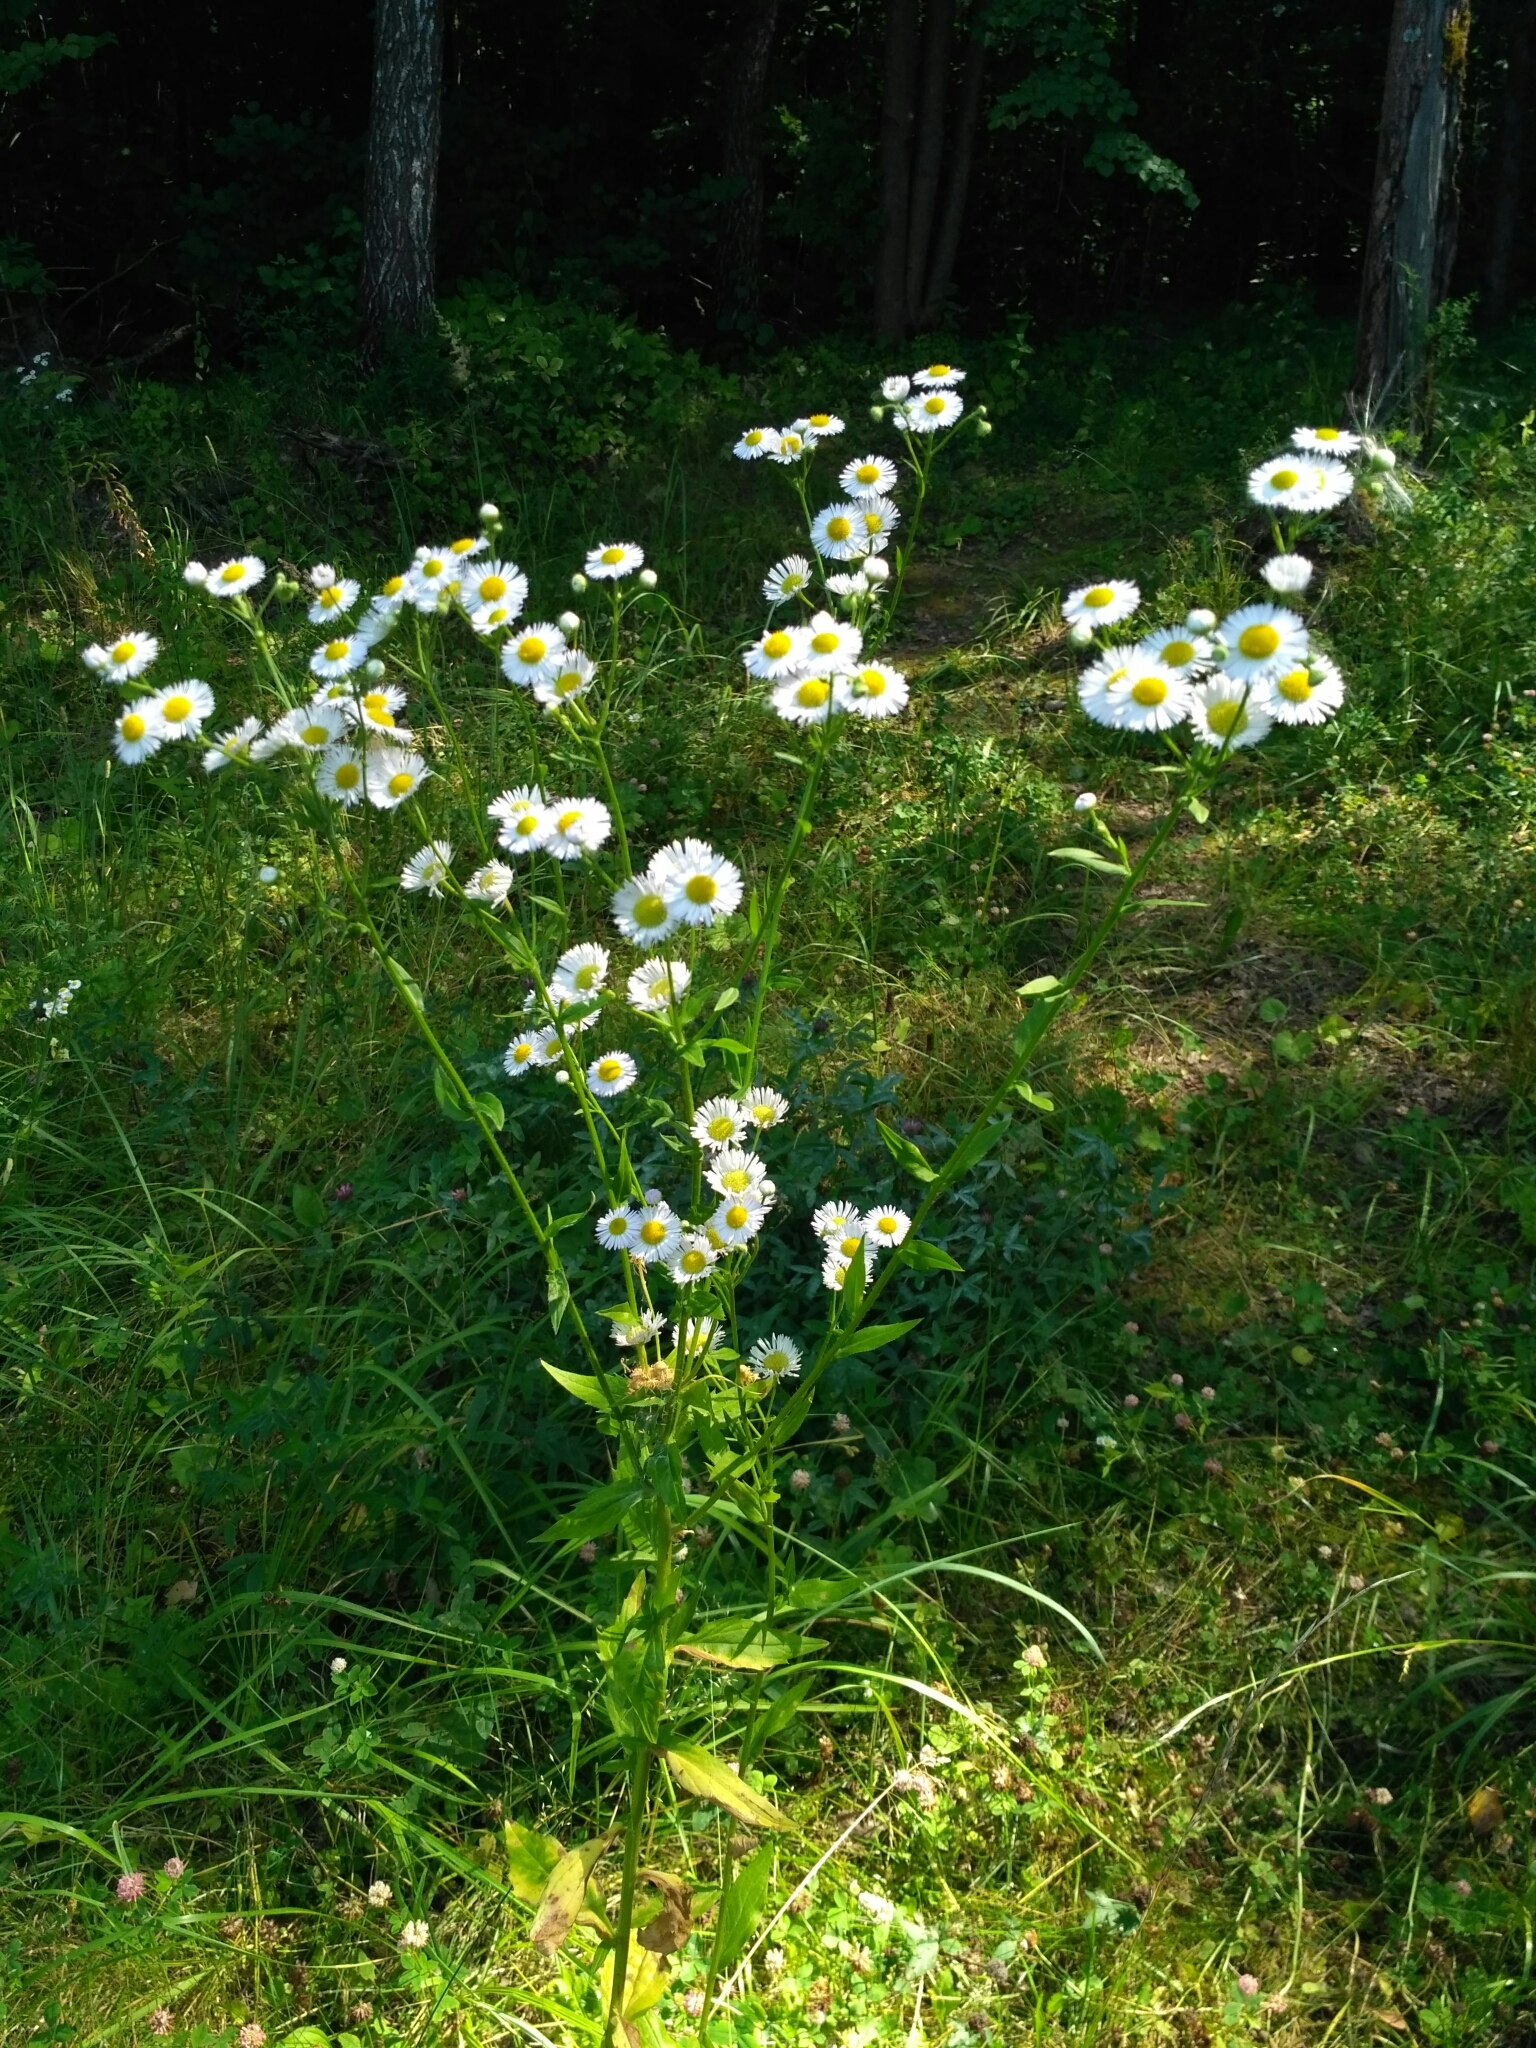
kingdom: Plantae
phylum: Tracheophyta
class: Magnoliopsida
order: Asterales
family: Asteraceae
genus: Erigeron
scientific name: Erigeron annuus
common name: Tall fleabane
